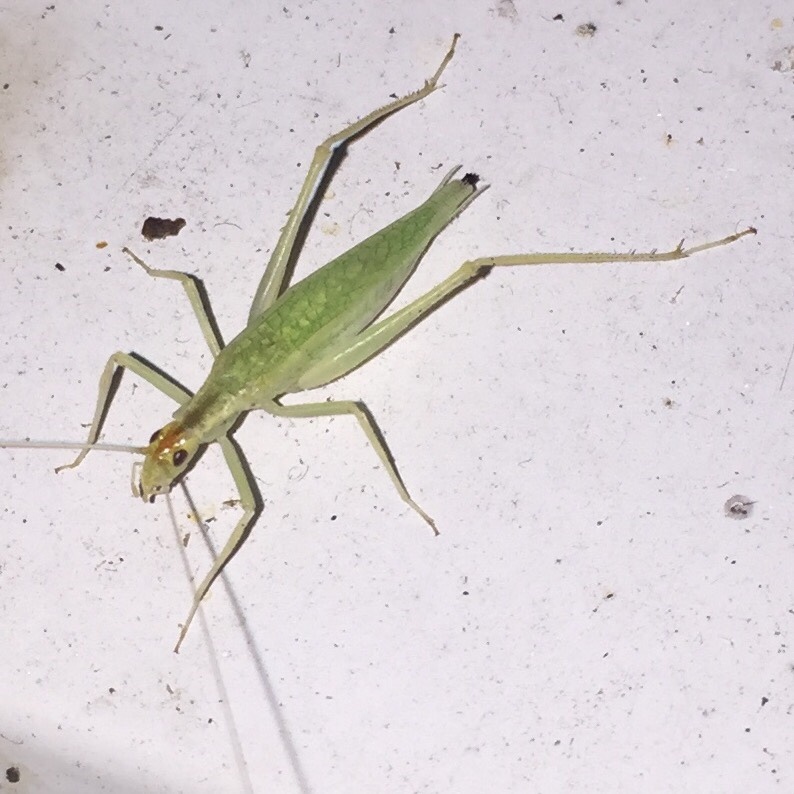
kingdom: Animalia
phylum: Arthropoda
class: Insecta
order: Orthoptera
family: Gryllidae
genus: Oecanthus
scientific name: Oecanthus niveus
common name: Narrow-winged tree cricket
